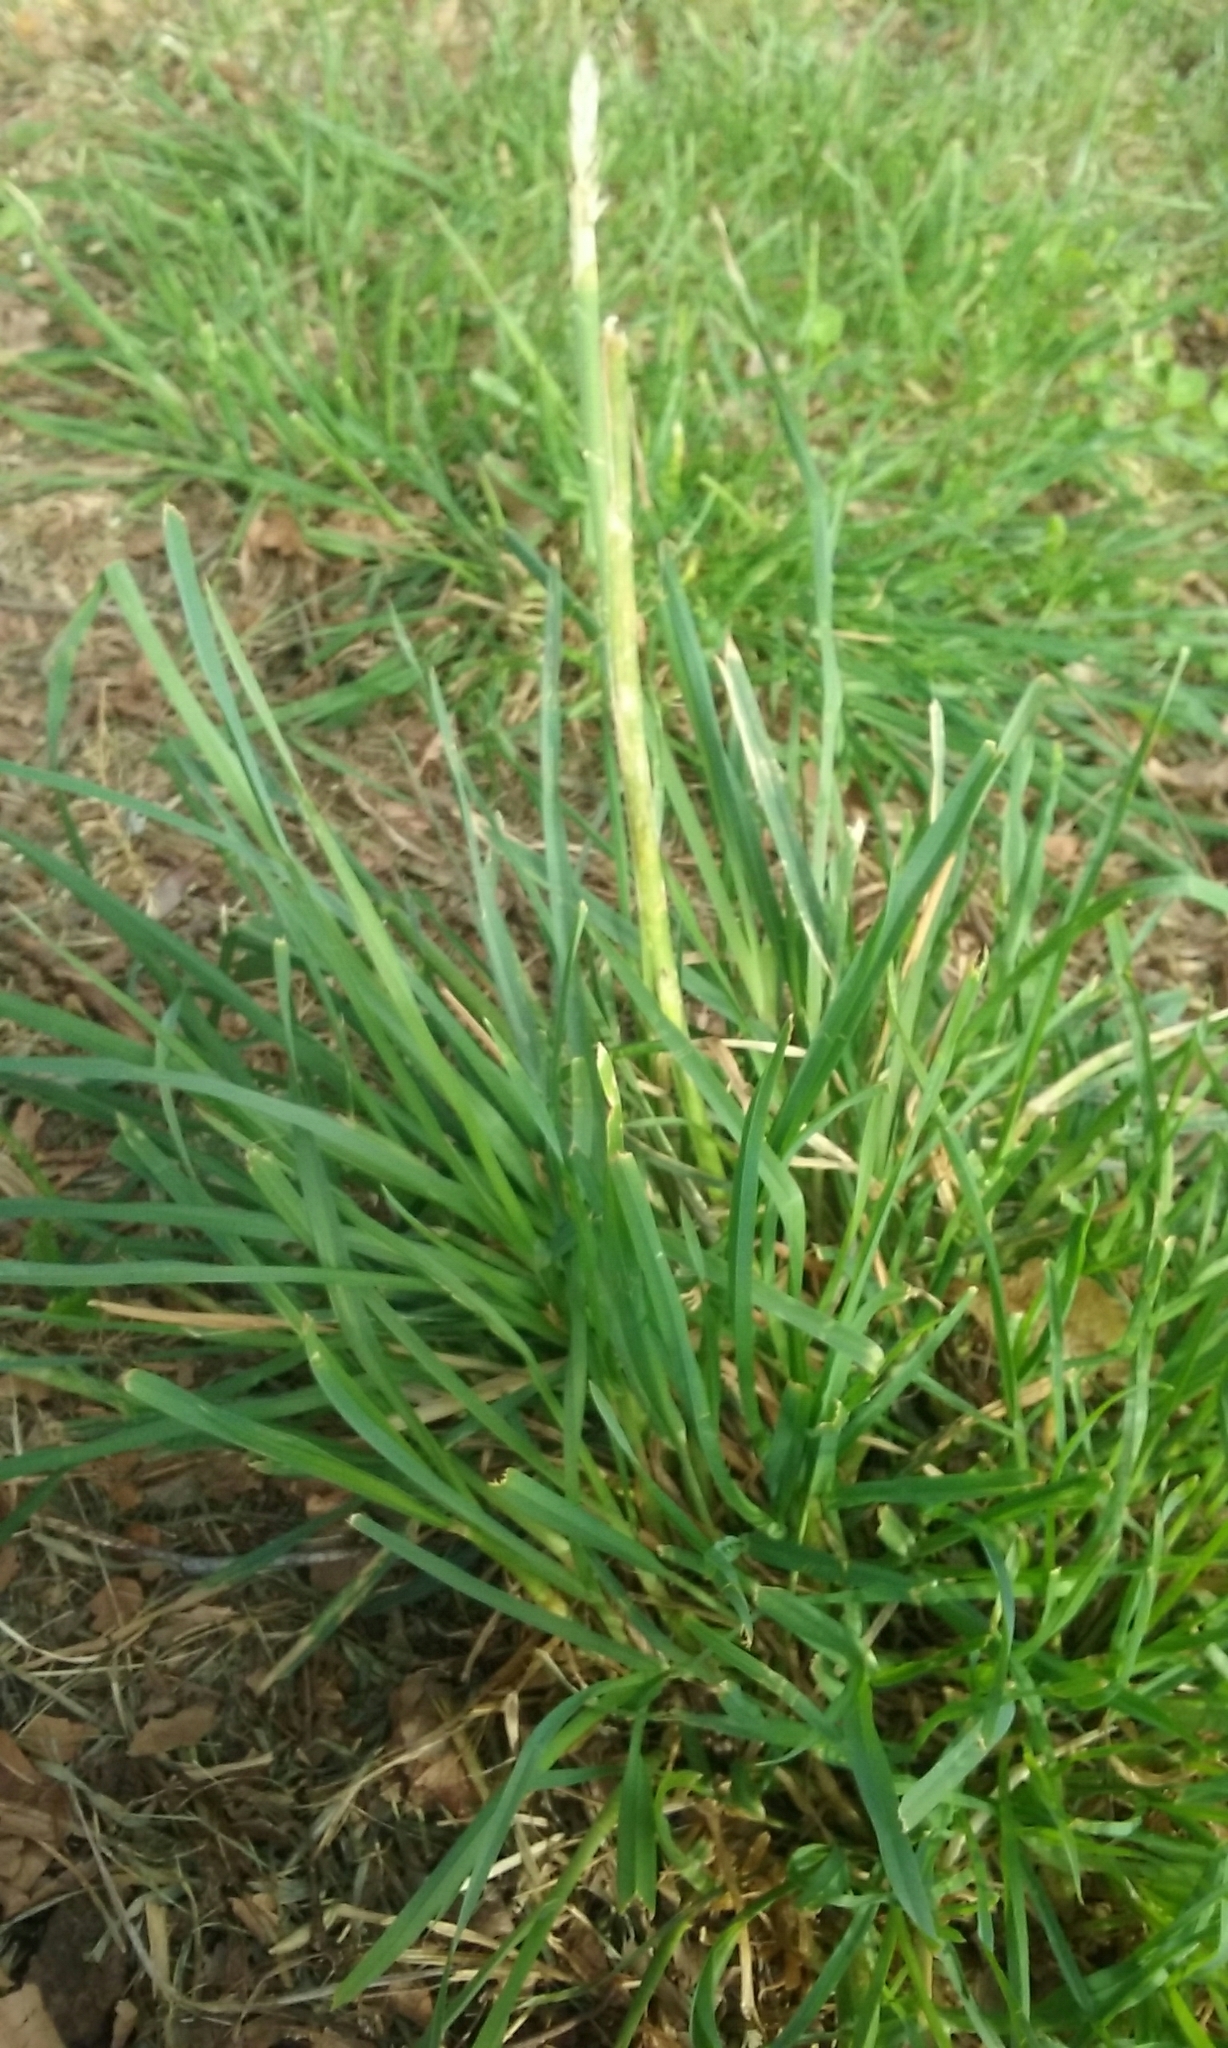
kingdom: Plantae
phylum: Tracheophyta
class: Liliopsida
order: Poales
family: Poaceae
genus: Dactylis
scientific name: Dactylis glomerata
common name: Orchardgrass
